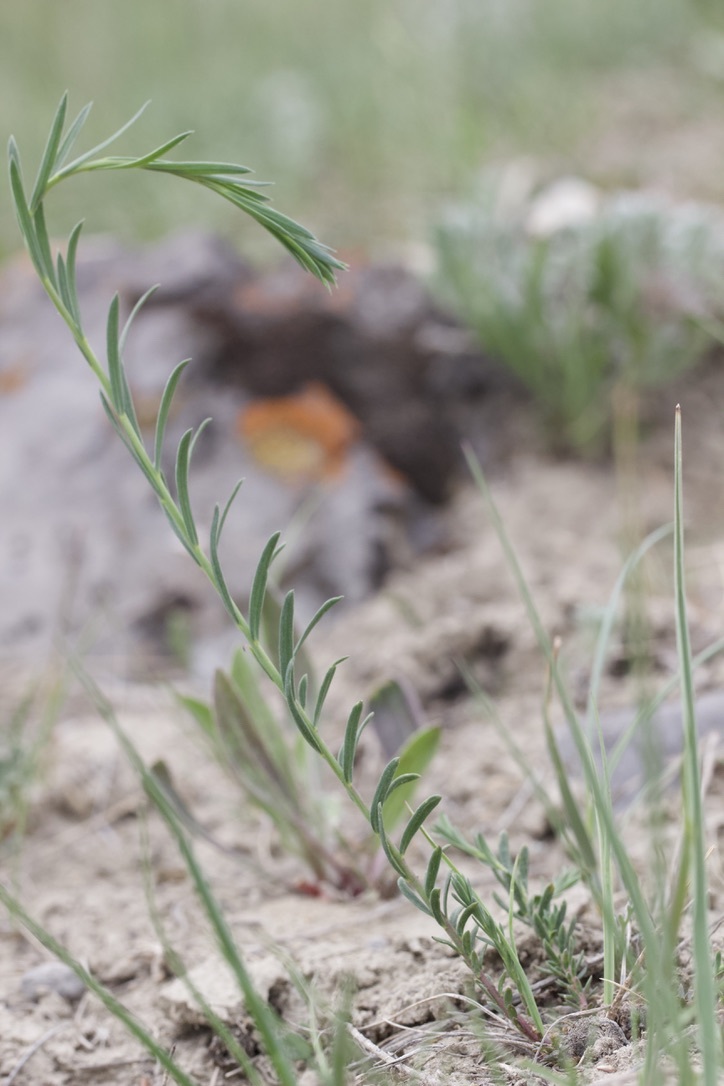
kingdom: Plantae
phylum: Tracheophyta
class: Magnoliopsida
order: Malpighiales
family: Linaceae
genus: Linum
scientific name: Linum lewisii
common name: Prairie flax
